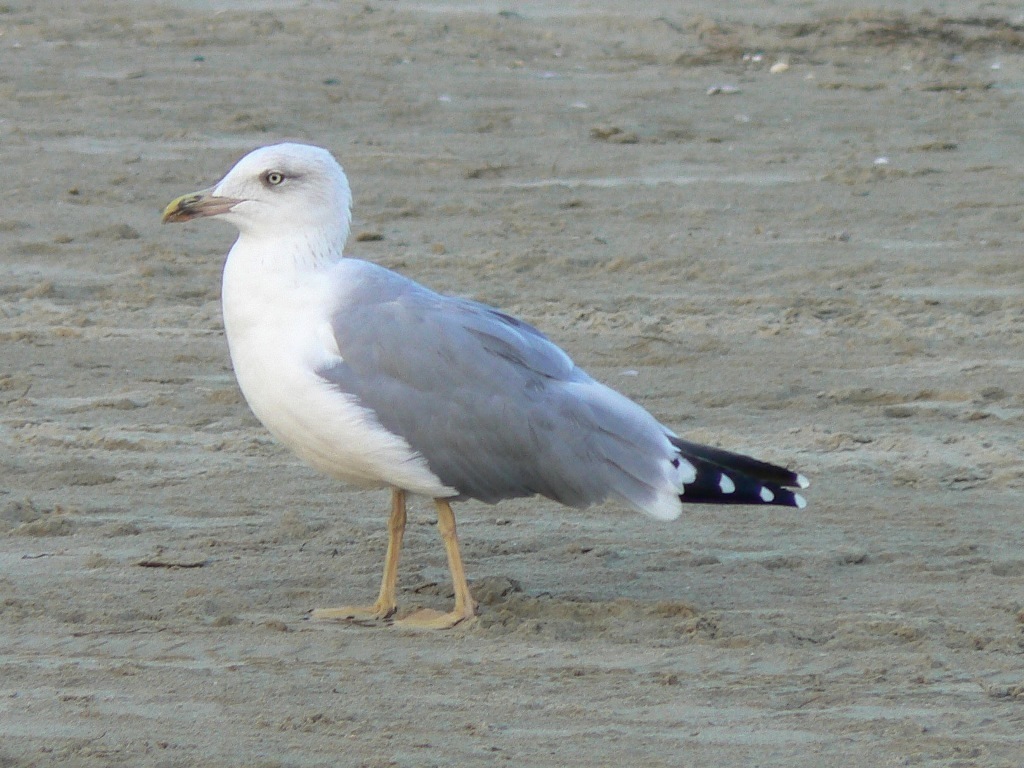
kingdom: Animalia
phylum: Chordata
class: Aves
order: Charadriiformes
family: Laridae
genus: Larus
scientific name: Larus michahellis
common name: Yellow-legged gull
